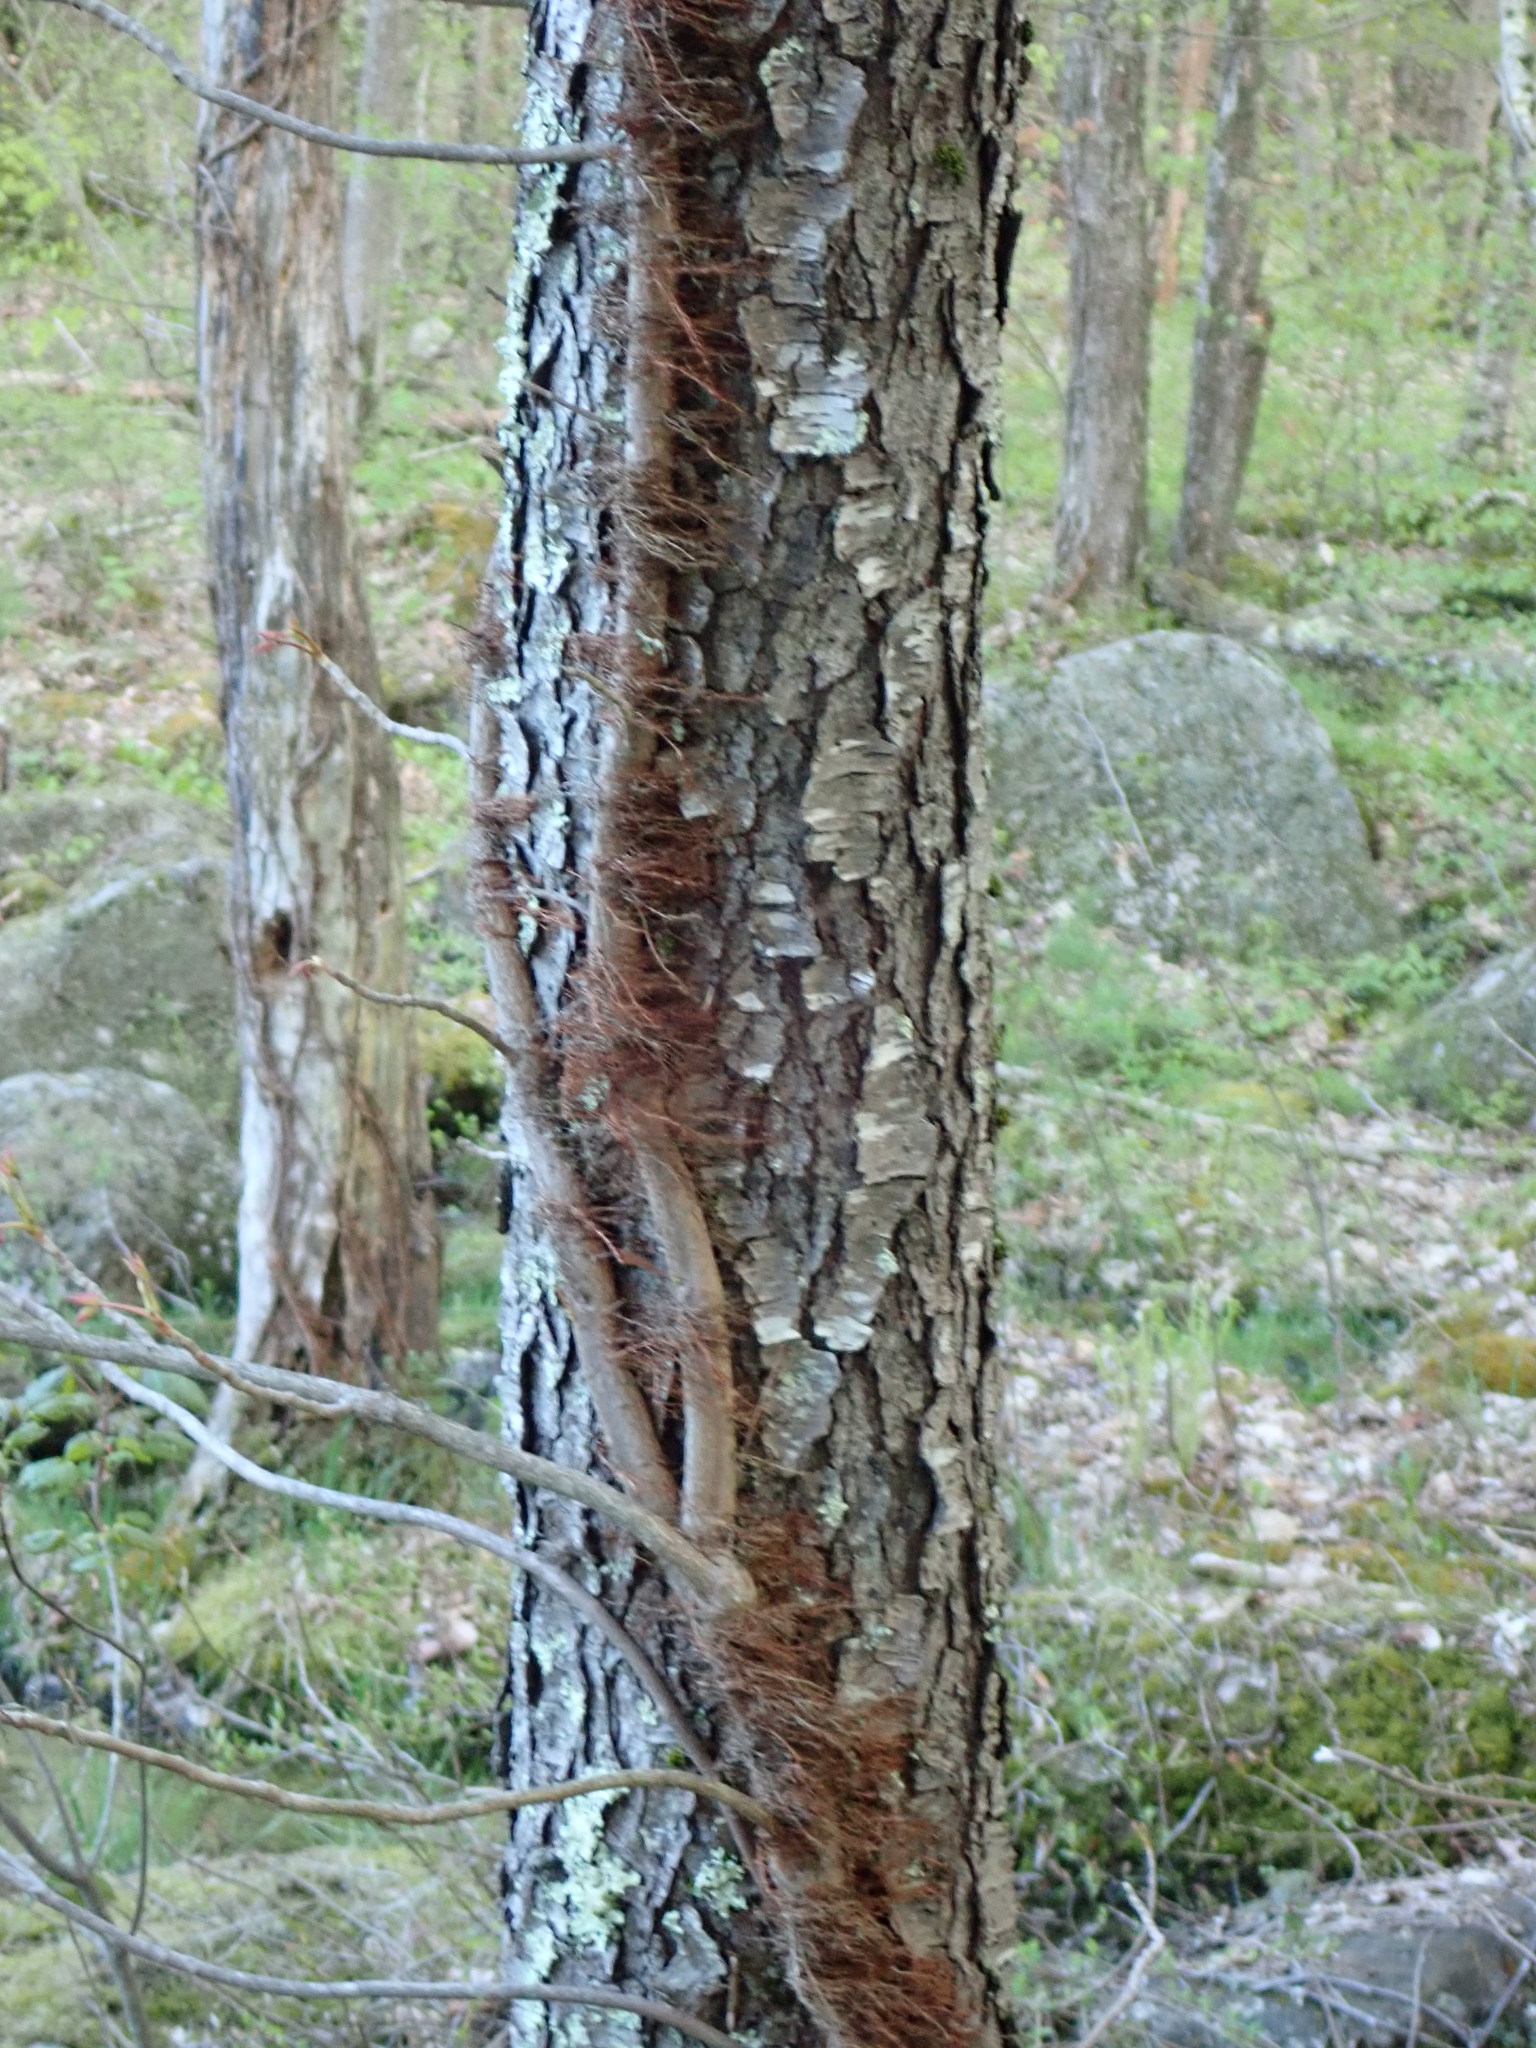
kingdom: Plantae
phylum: Tracheophyta
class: Magnoliopsida
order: Sapindales
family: Anacardiaceae
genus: Toxicodendron
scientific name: Toxicodendron radicans
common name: Poison ivy
